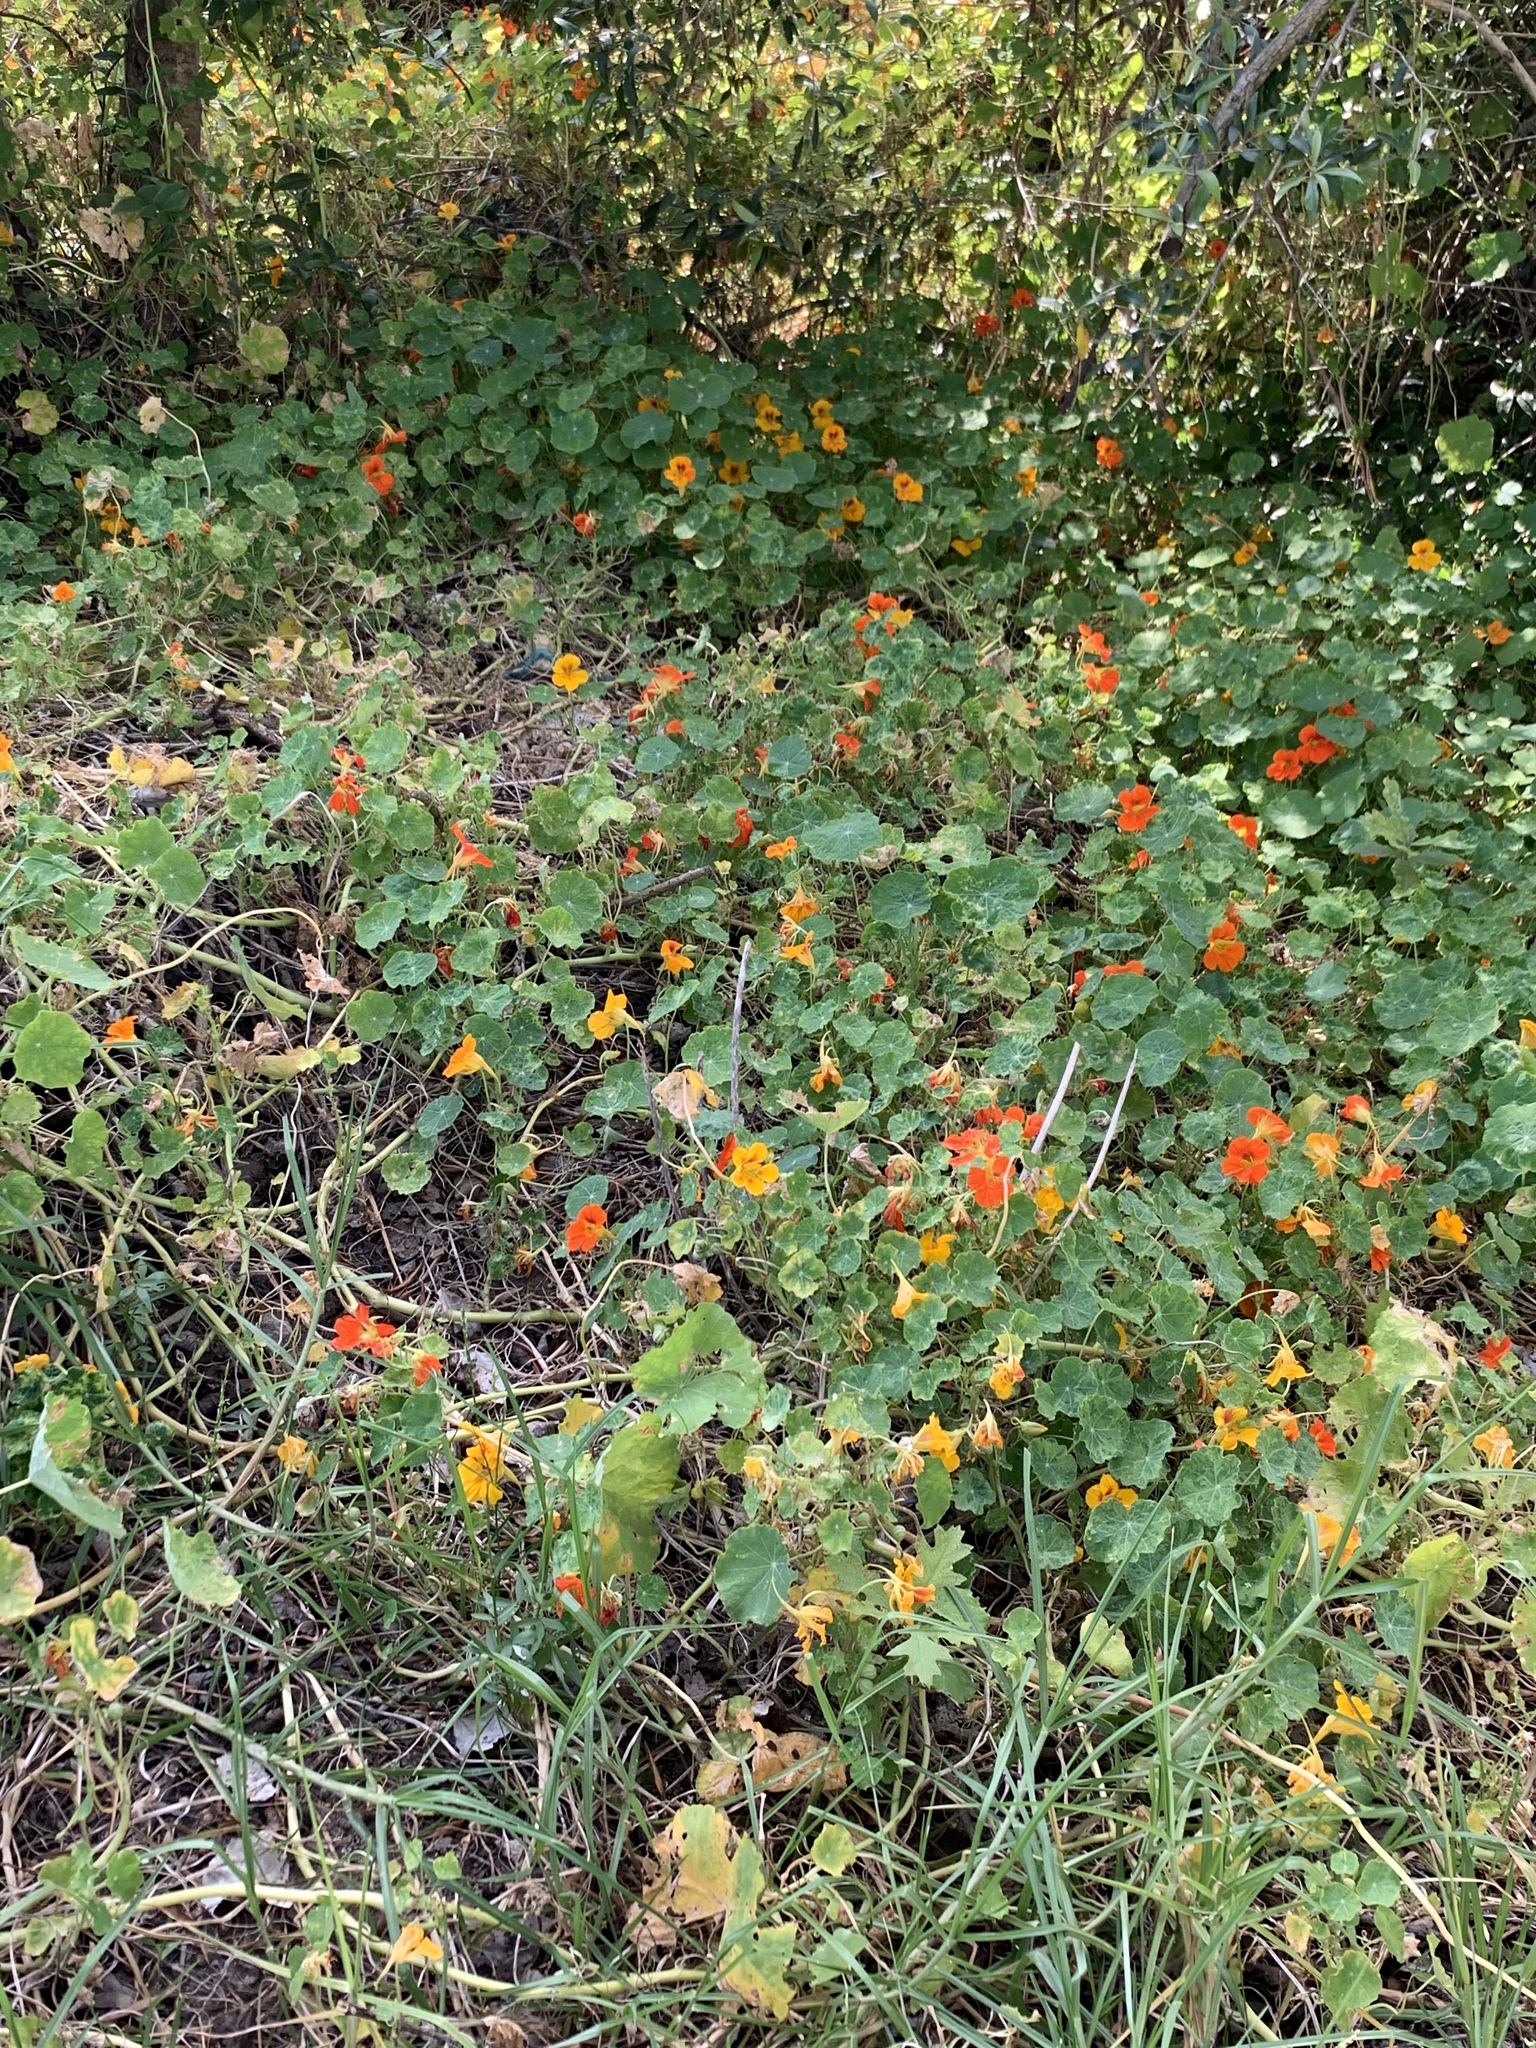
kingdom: Plantae
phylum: Tracheophyta
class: Magnoliopsida
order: Brassicales
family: Tropaeolaceae
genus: Tropaeolum
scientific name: Tropaeolum majus
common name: Nasturtium
